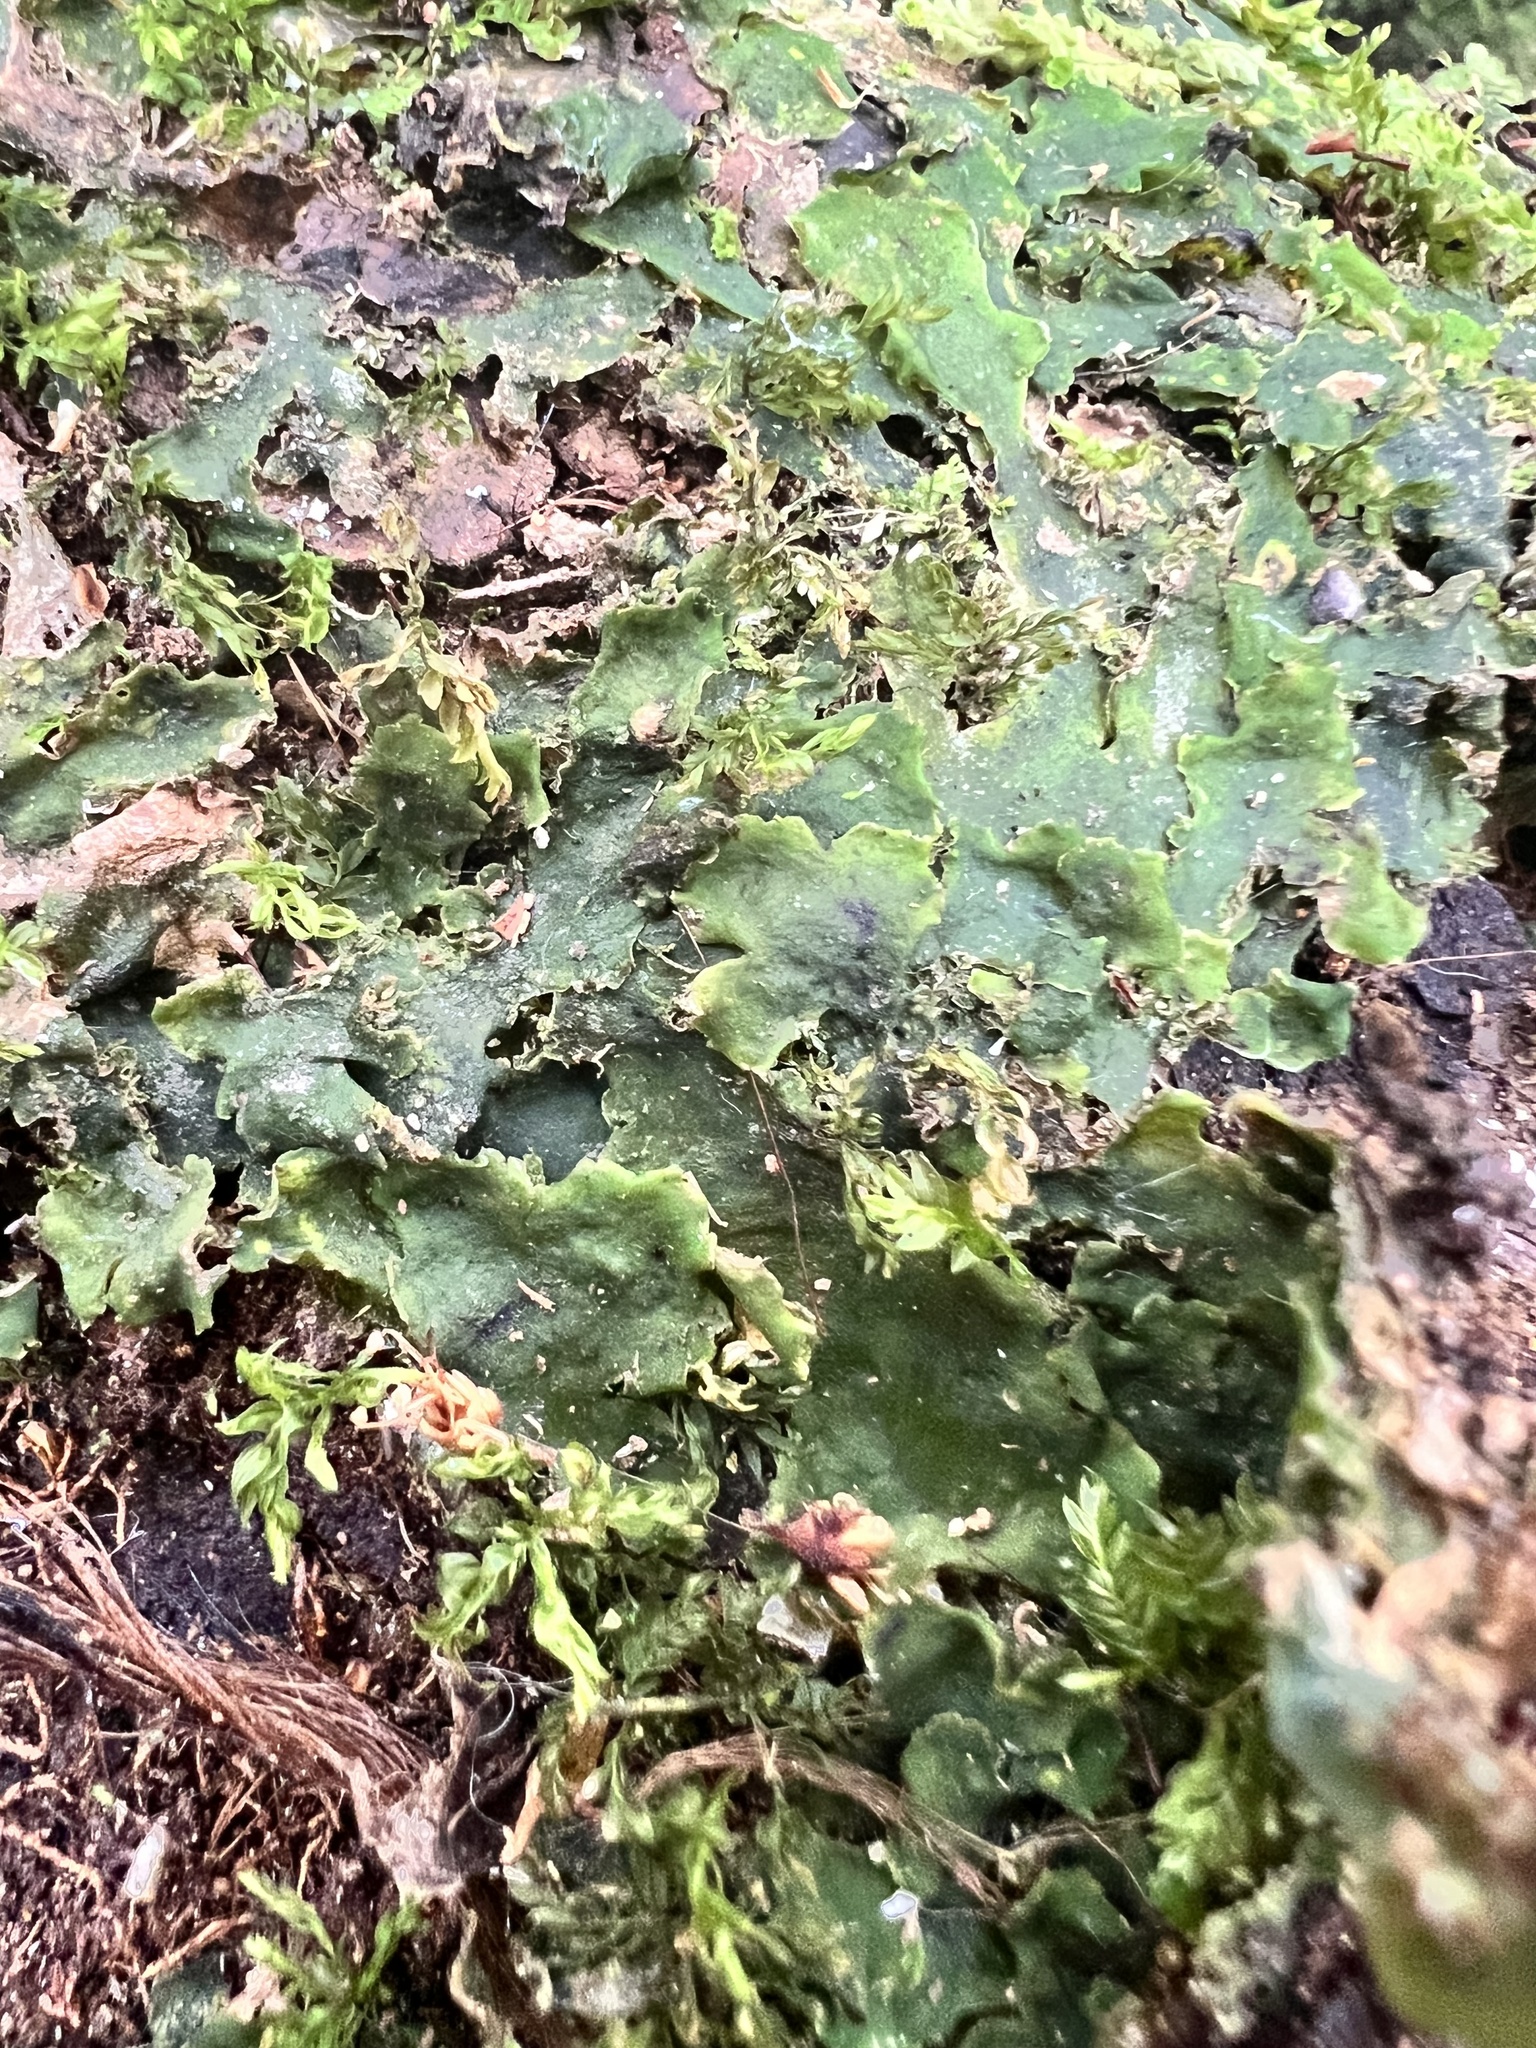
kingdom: Plantae
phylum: Marchantiophyta
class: Marchantiopsida
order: Marchantiales
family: Monocleaceae
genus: Monoclea
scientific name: Monoclea forsteri
